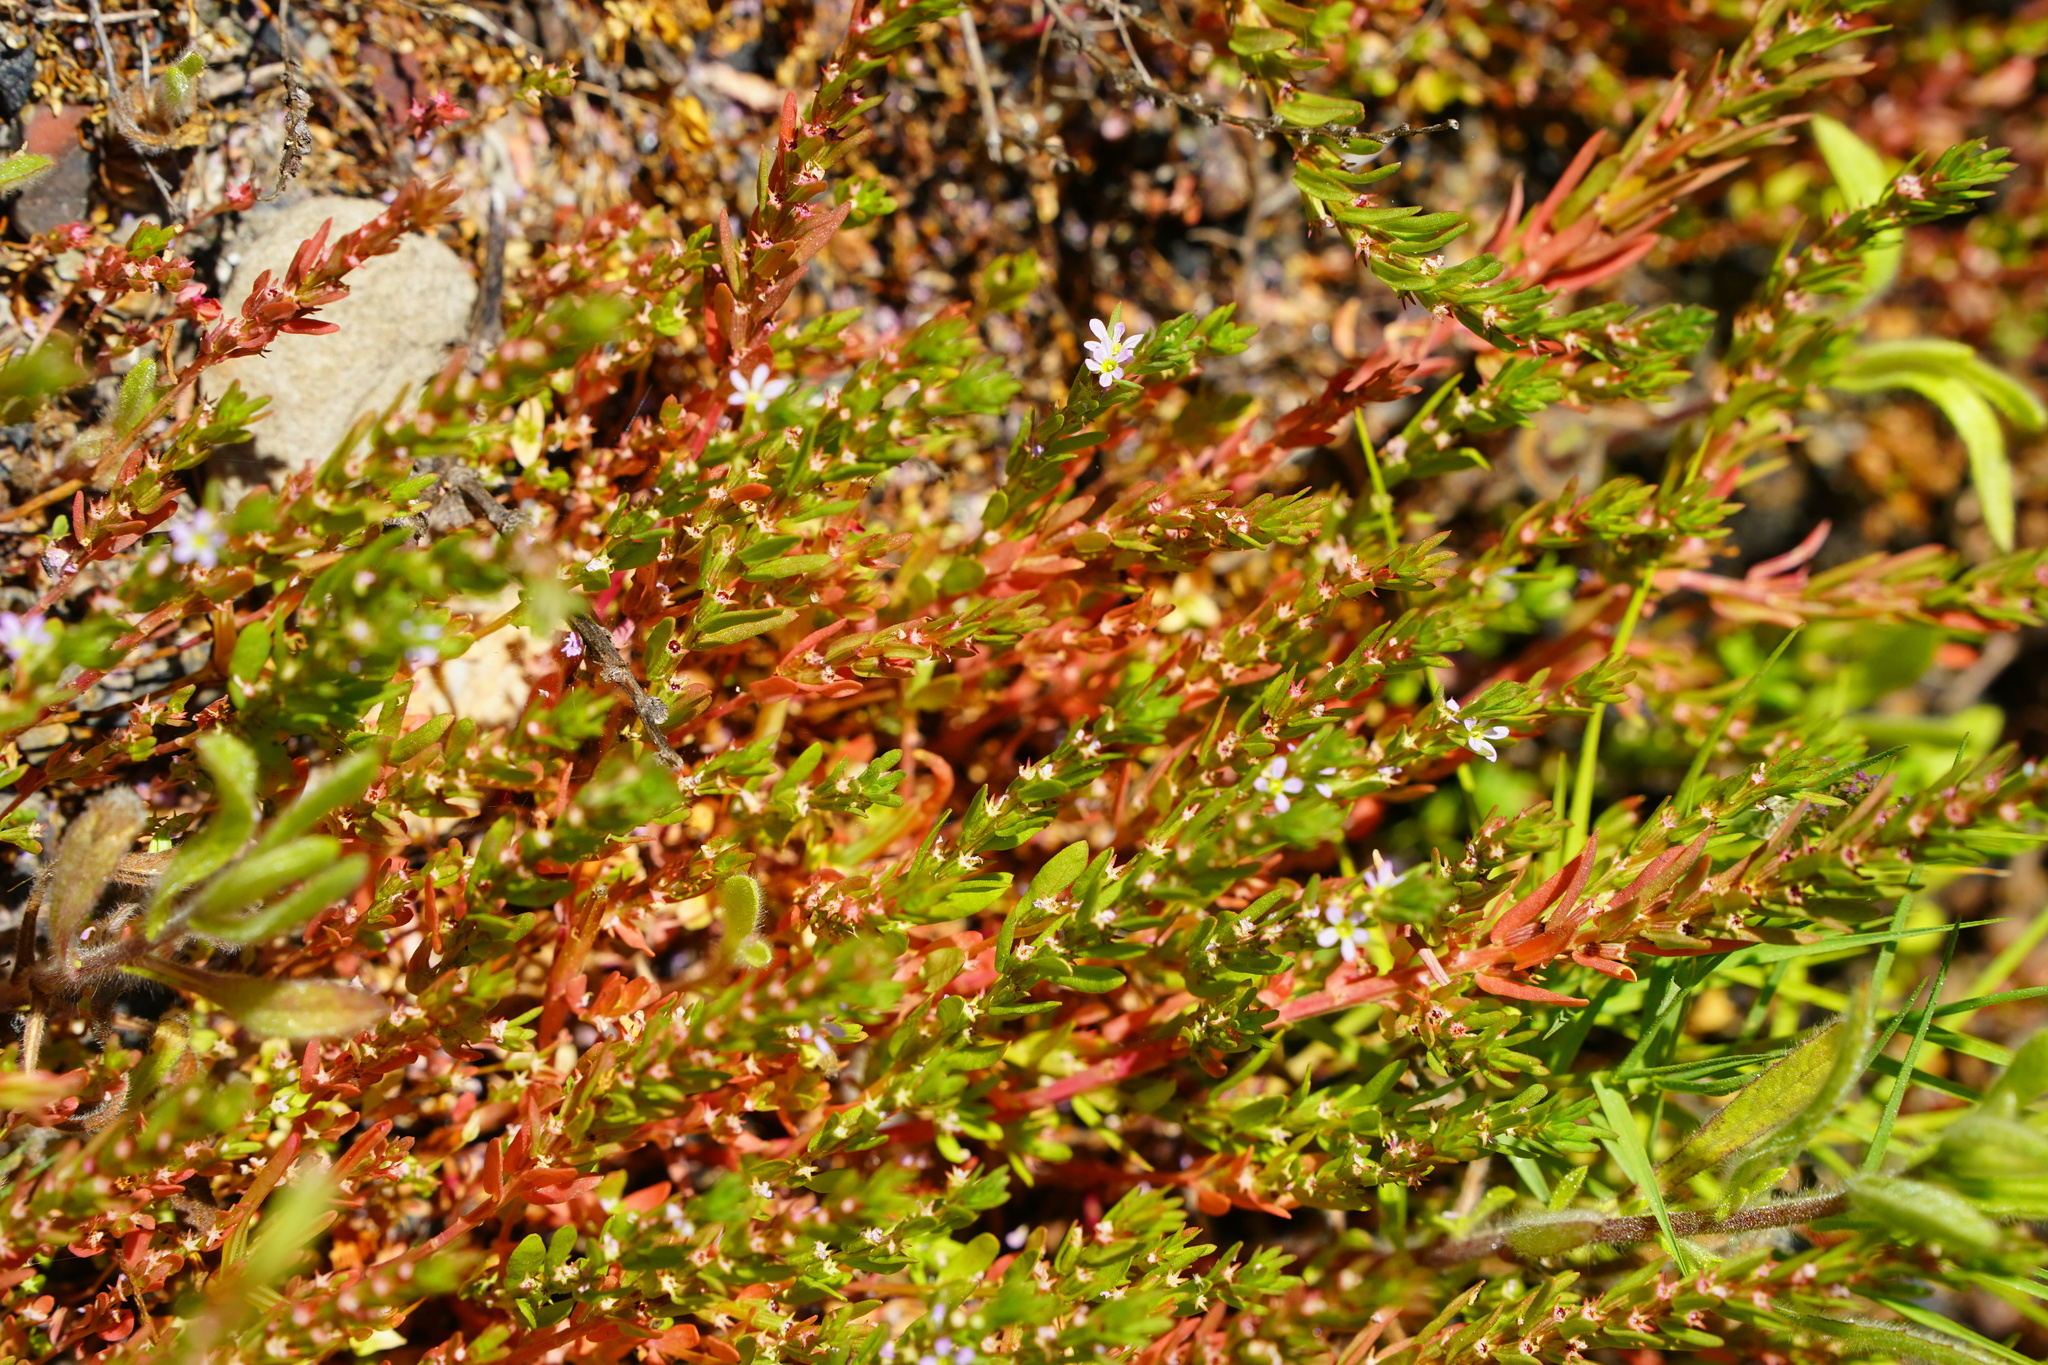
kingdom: Plantae
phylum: Tracheophyta
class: Magnoliopsida
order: Myrtales
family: Lythraceae
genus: Lythrum
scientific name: Lythrum hyssopifolia
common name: Grass-poly
